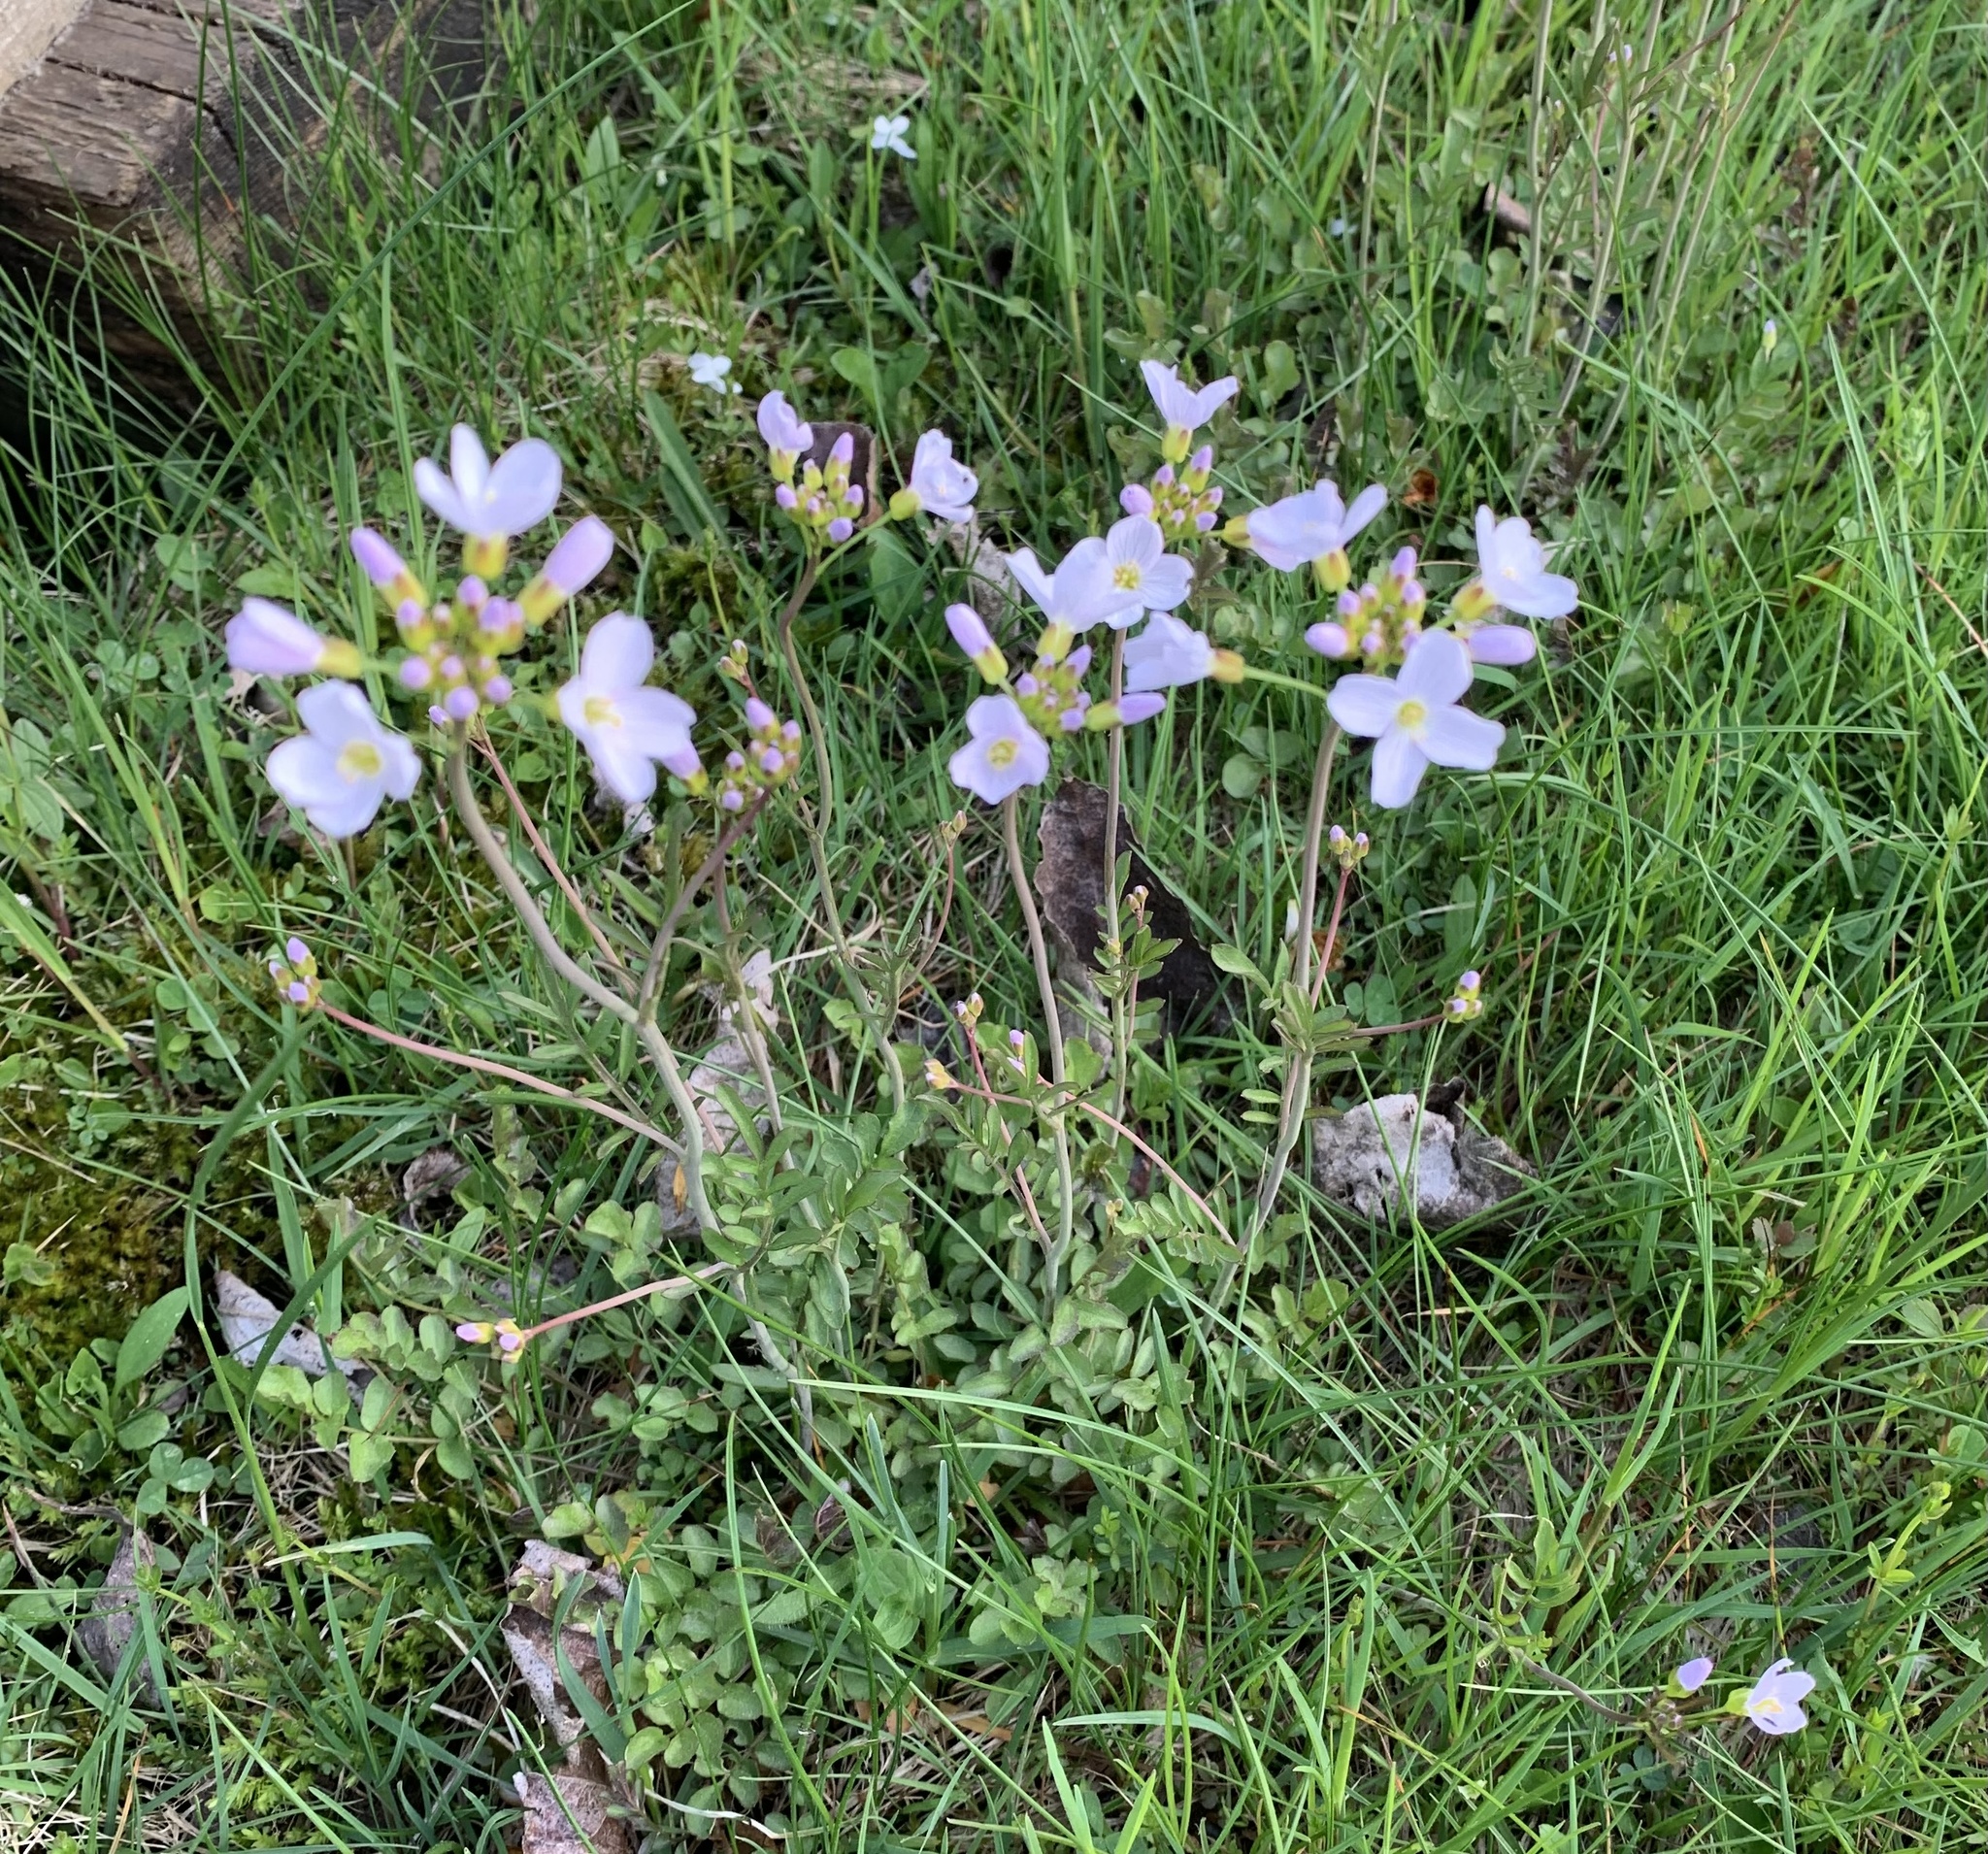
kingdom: Plantae
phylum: Tracheophyta
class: Magnoliopsida
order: Brassicales
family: Brassicaceae
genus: Cardamine
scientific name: Cardamine pratensis
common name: Cuckoo flower
